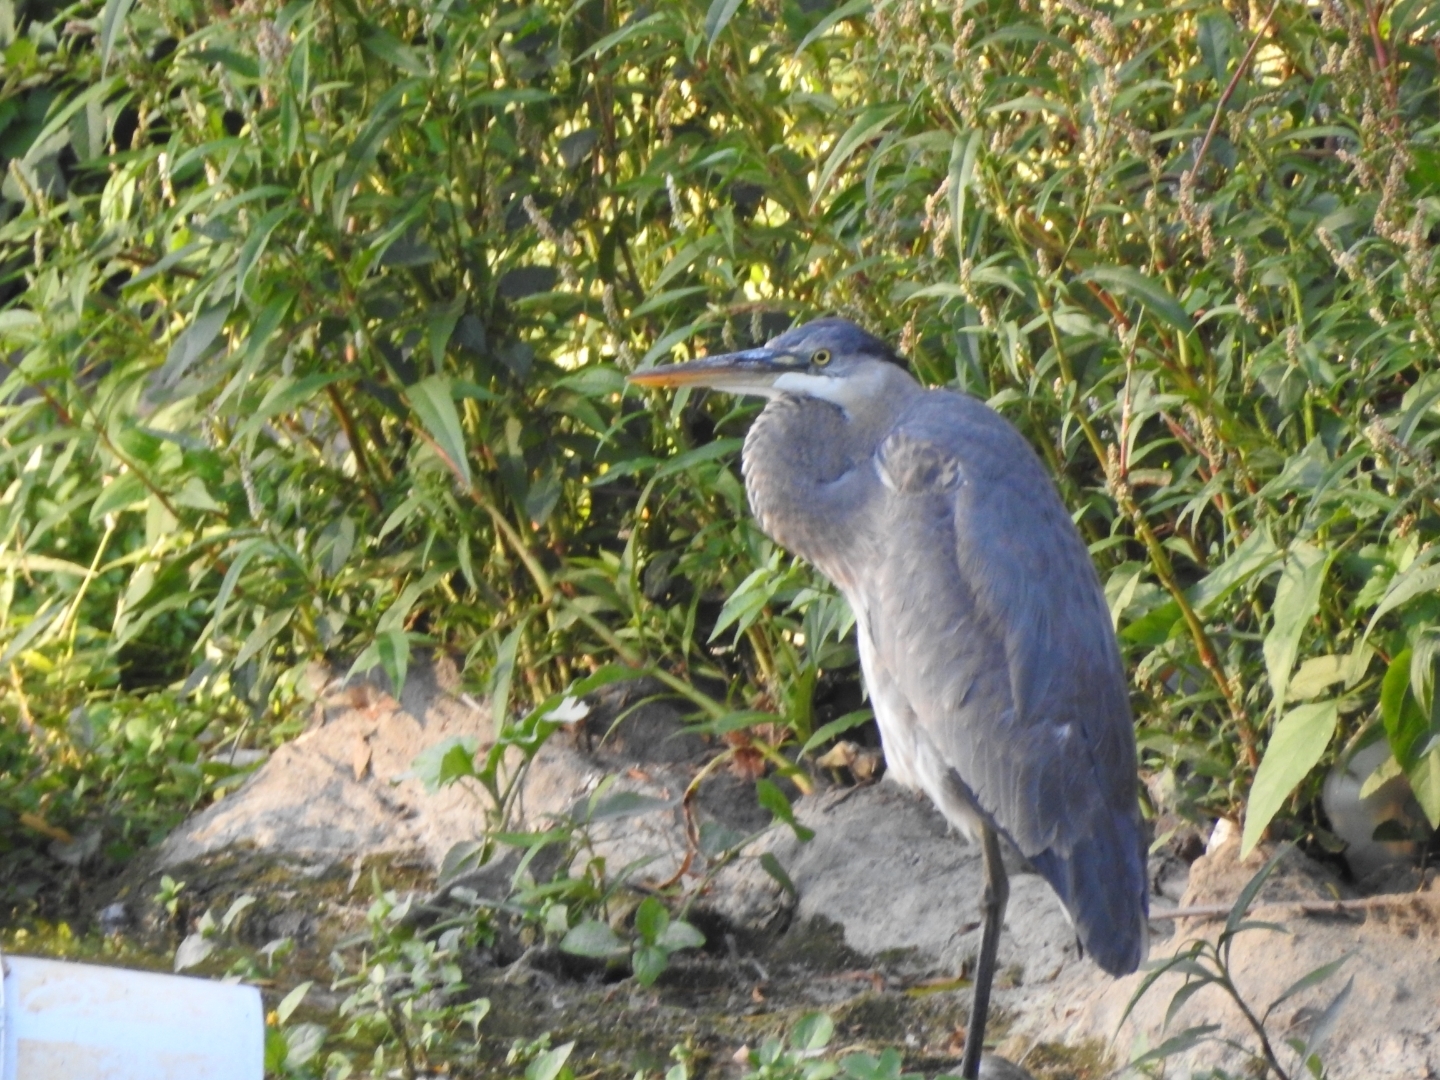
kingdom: Animalia
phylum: Chordata
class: Aves
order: Pelecaniformes
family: Ardeidae
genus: Ardea
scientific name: Ardea herodias
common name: Great blue heron
